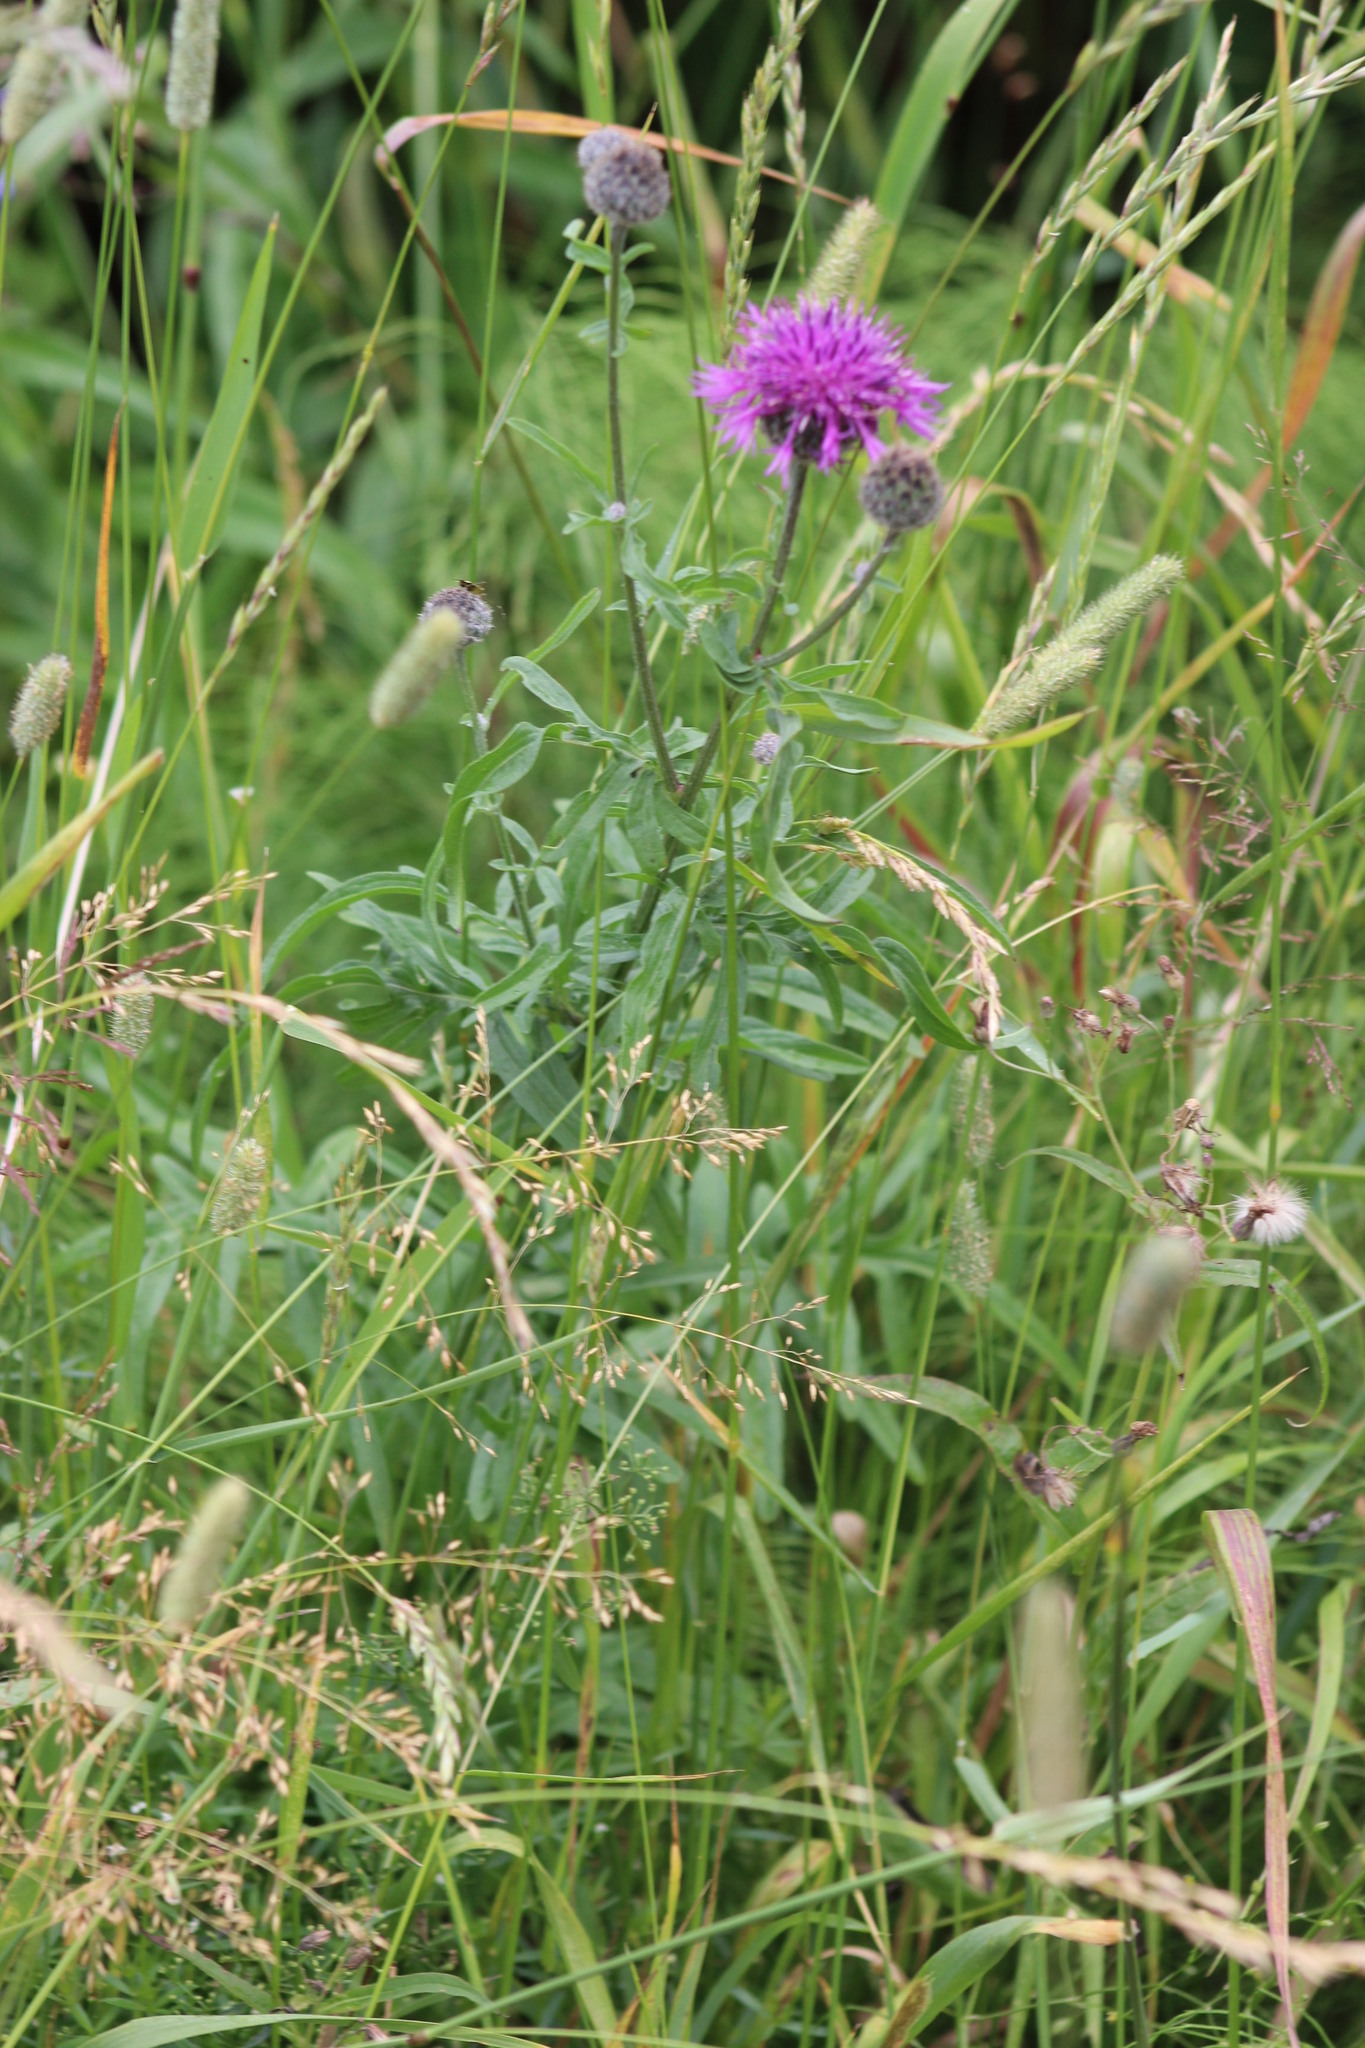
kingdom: Plantae
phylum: Tracheophyta
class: Magnoliopsida
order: Asterales
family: Asteraceae
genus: Centaurea
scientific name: Centaurea scabiosa
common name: Greater knapweed
